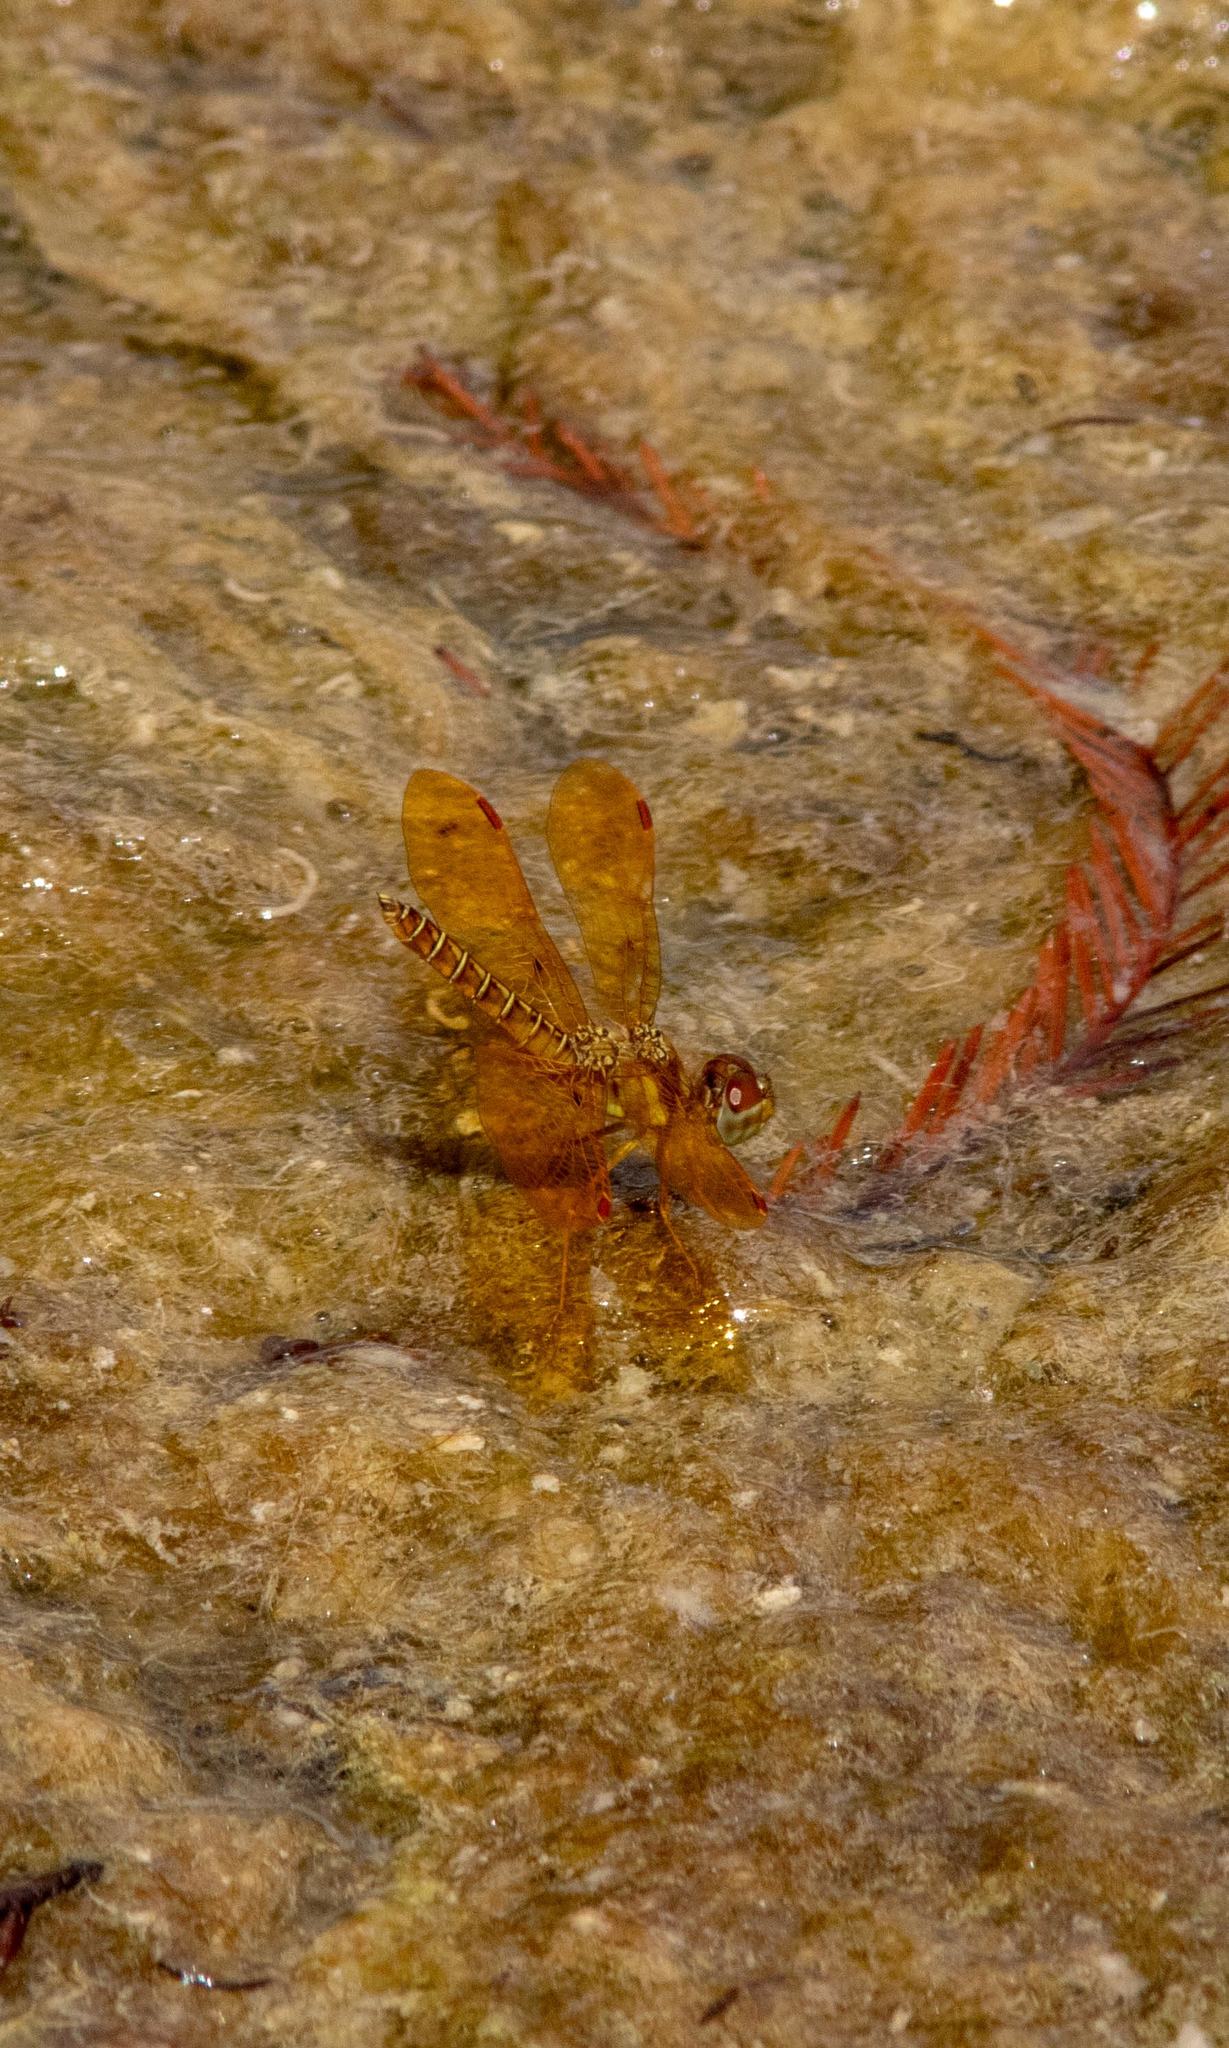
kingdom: Animalia
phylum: Arthropoda
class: Insecta
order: Odonata
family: Libellulidae
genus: Perithemis
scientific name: Perithemis tenera
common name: Eastern amberwing
